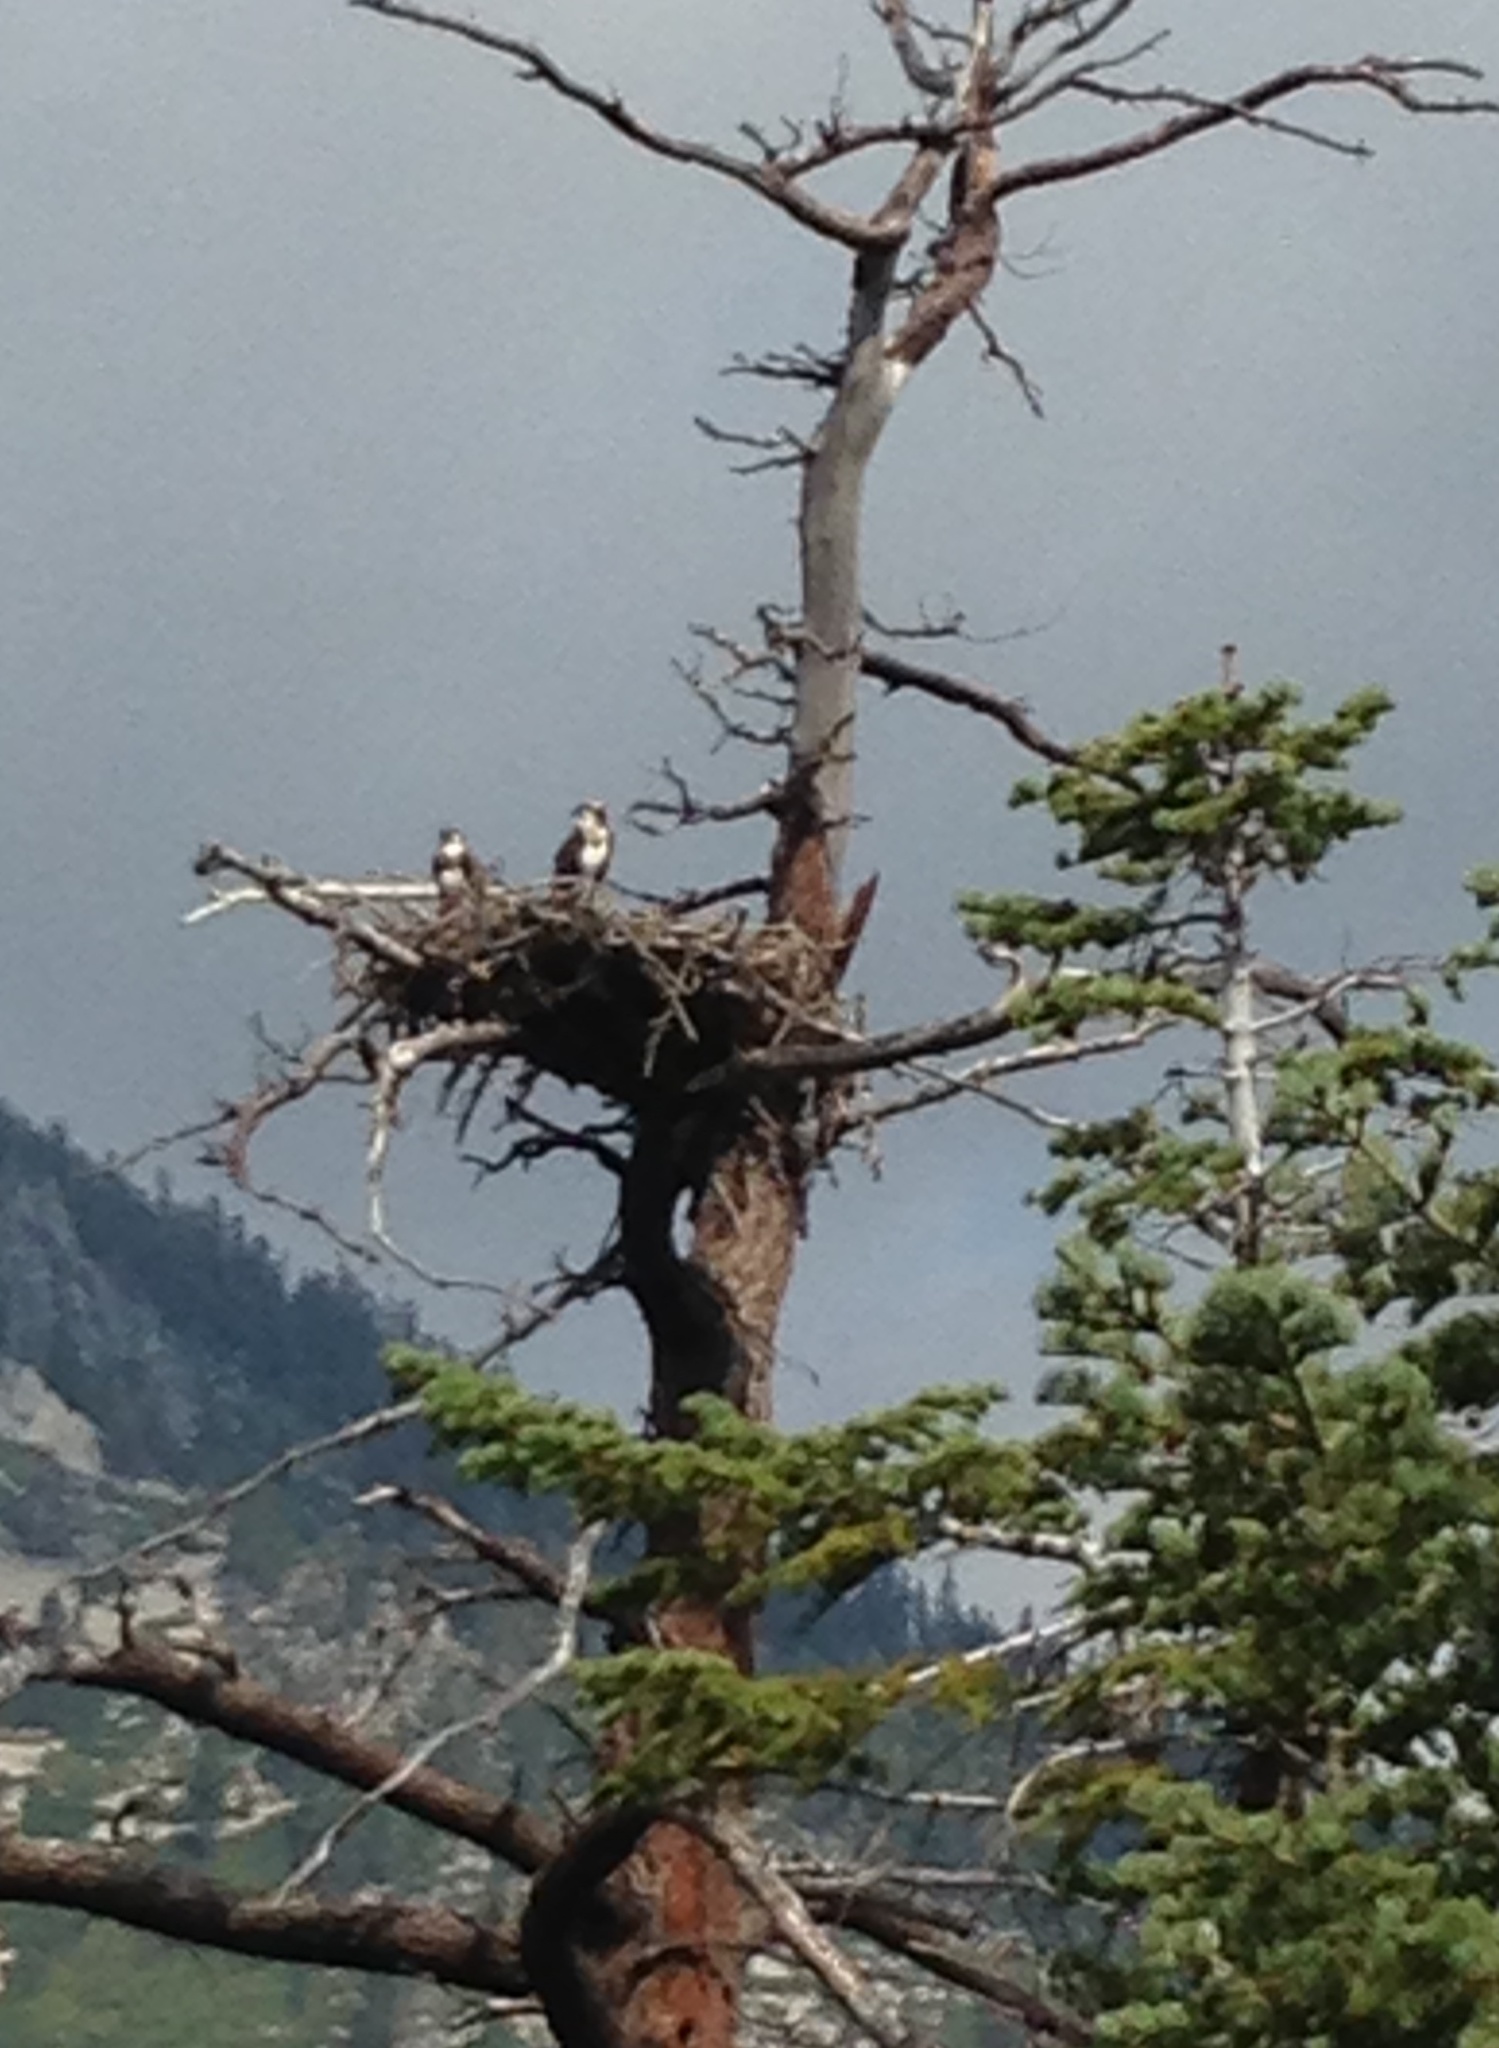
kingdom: Animalia
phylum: Chordata
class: Aves
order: Accipitriformes
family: Pandionidae
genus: Pandion
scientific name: Pandion haliaetus
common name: Osprey
